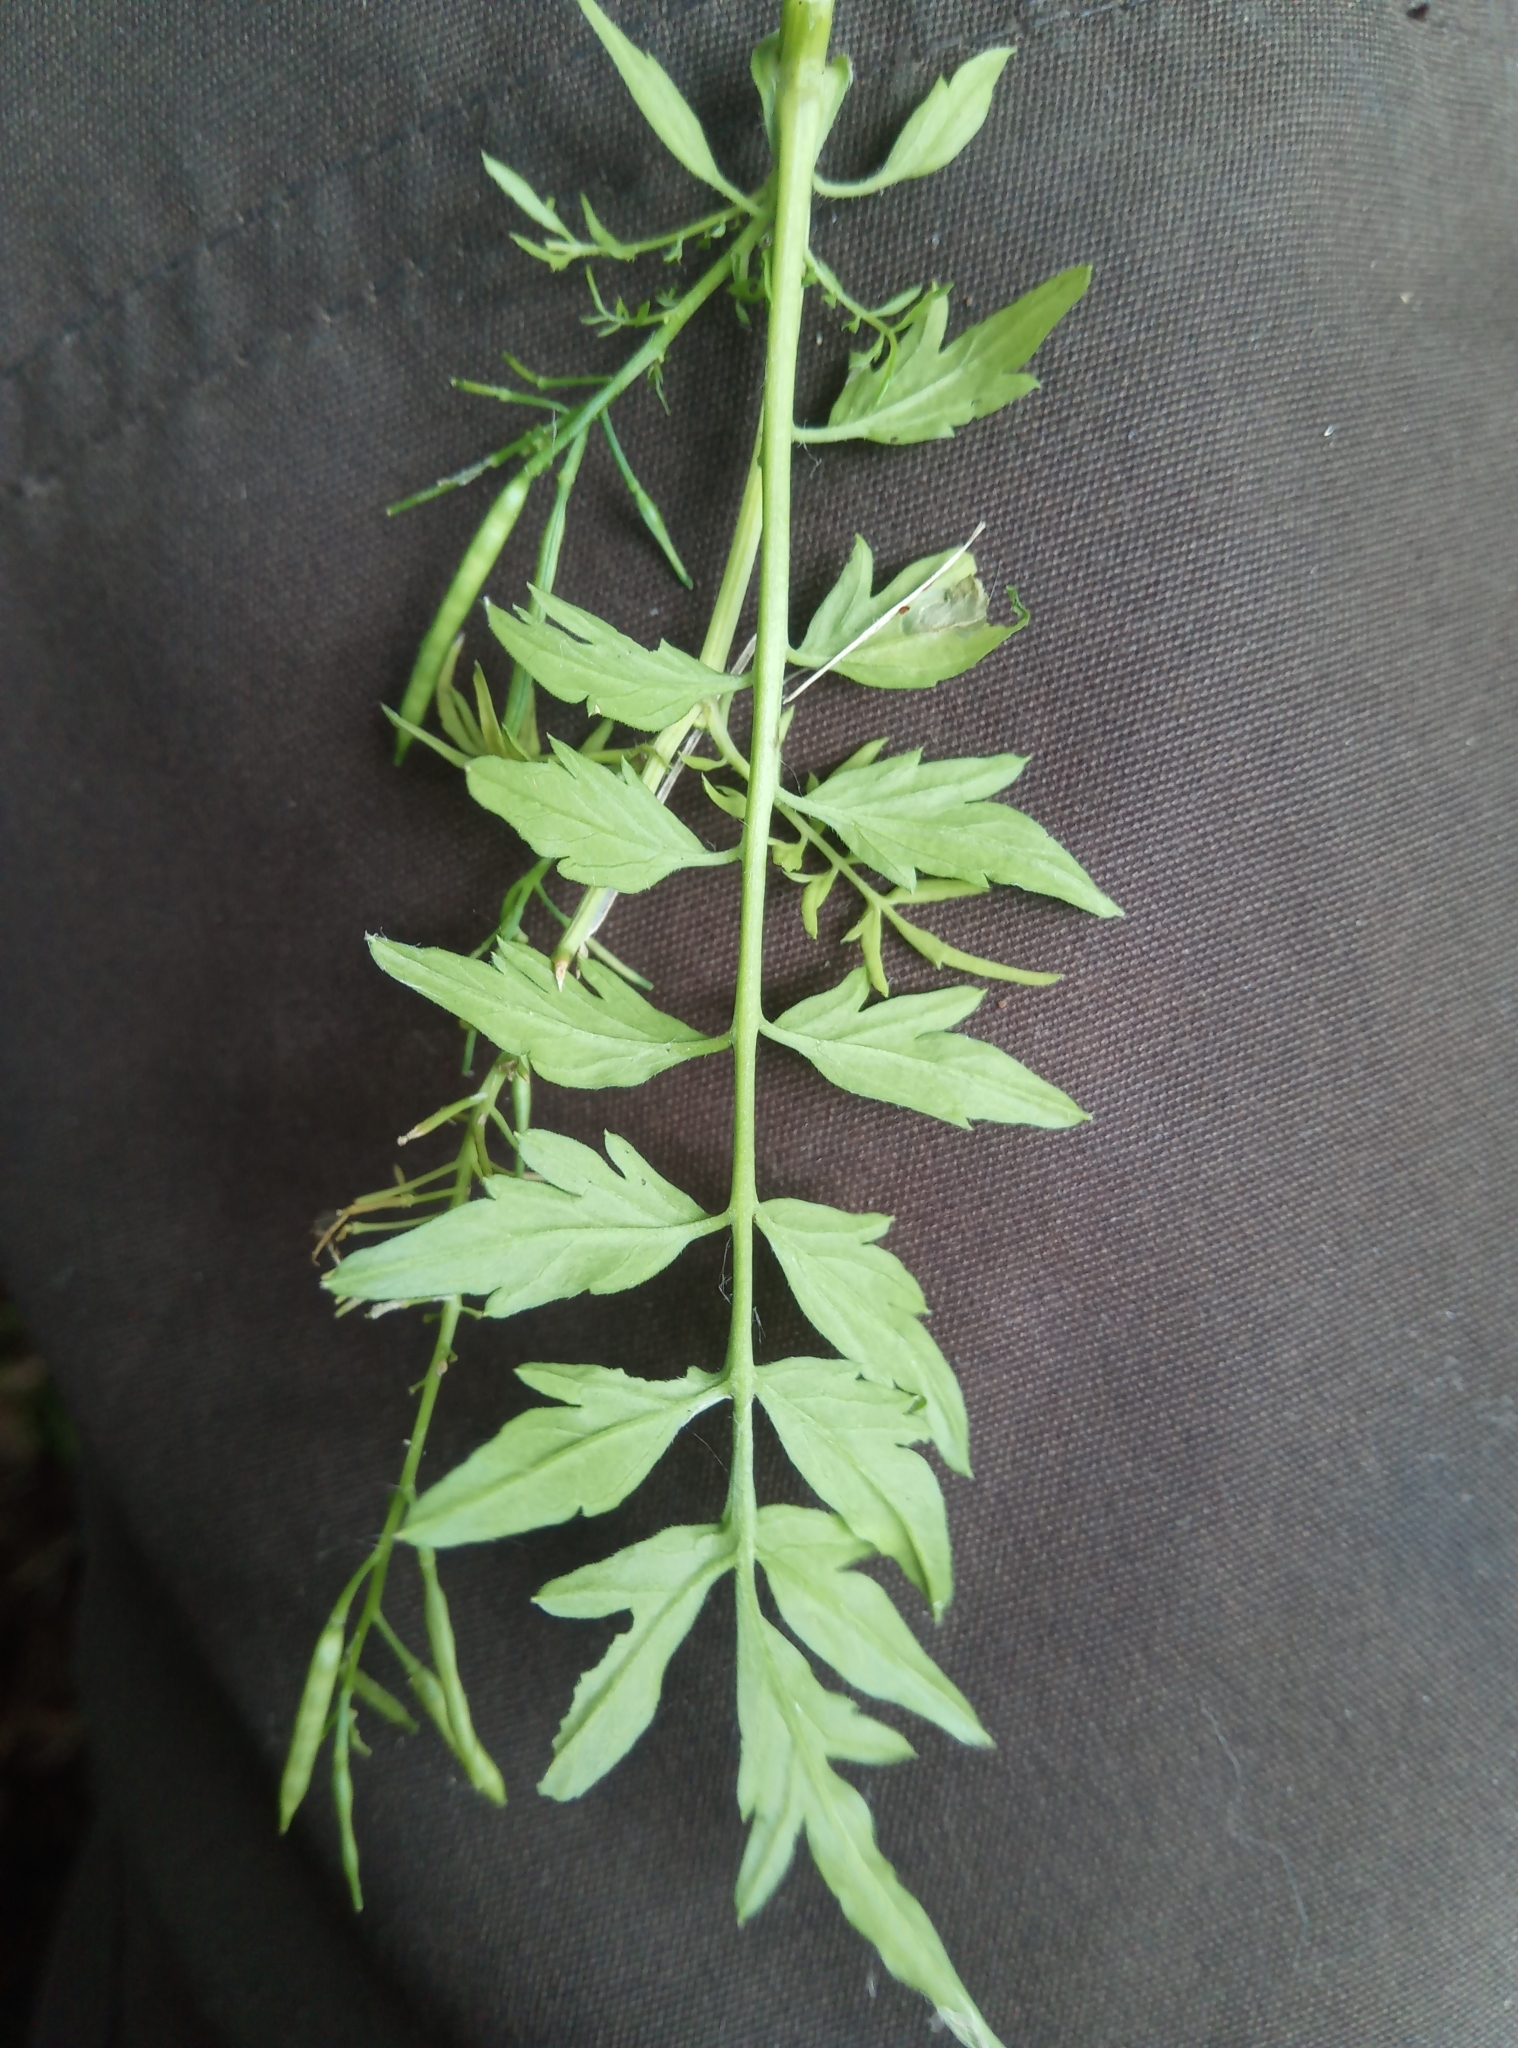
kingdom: Plantae
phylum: Tracheophyta
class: Magnoliopsida
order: Brassicales
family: Brassicaceae
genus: Cardamine
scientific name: Cardamine impatiens
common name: Narrow-leaved bitter-cress
